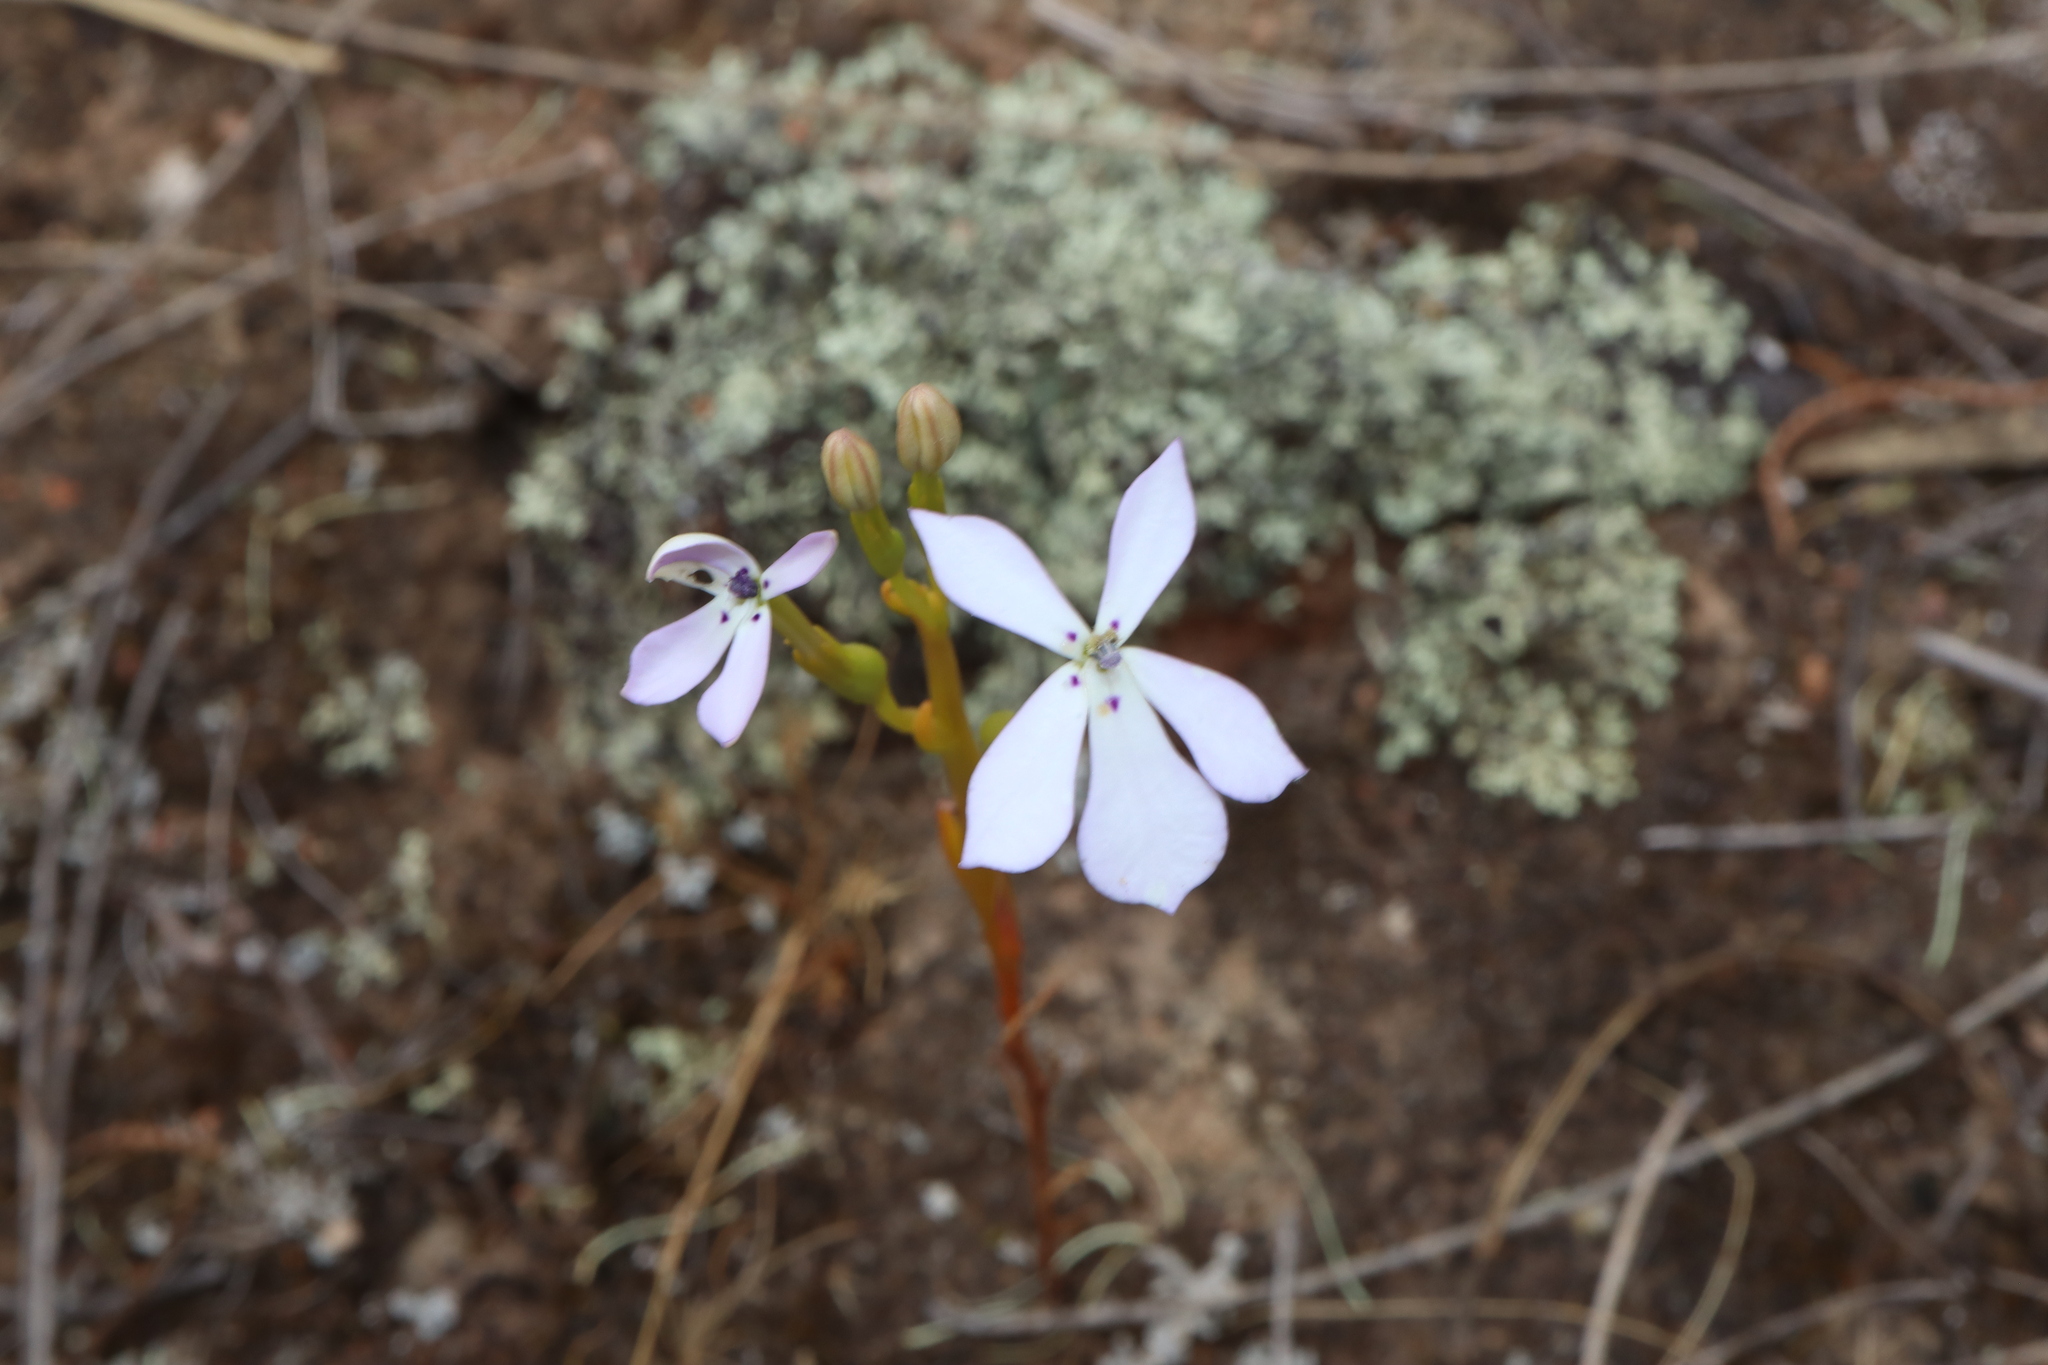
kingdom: Plantae
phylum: Tracheophyta
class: Magnoliopsida
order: Asterales
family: Campanulaceae
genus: Isotoma
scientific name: Isotoma hypocrateriformis
